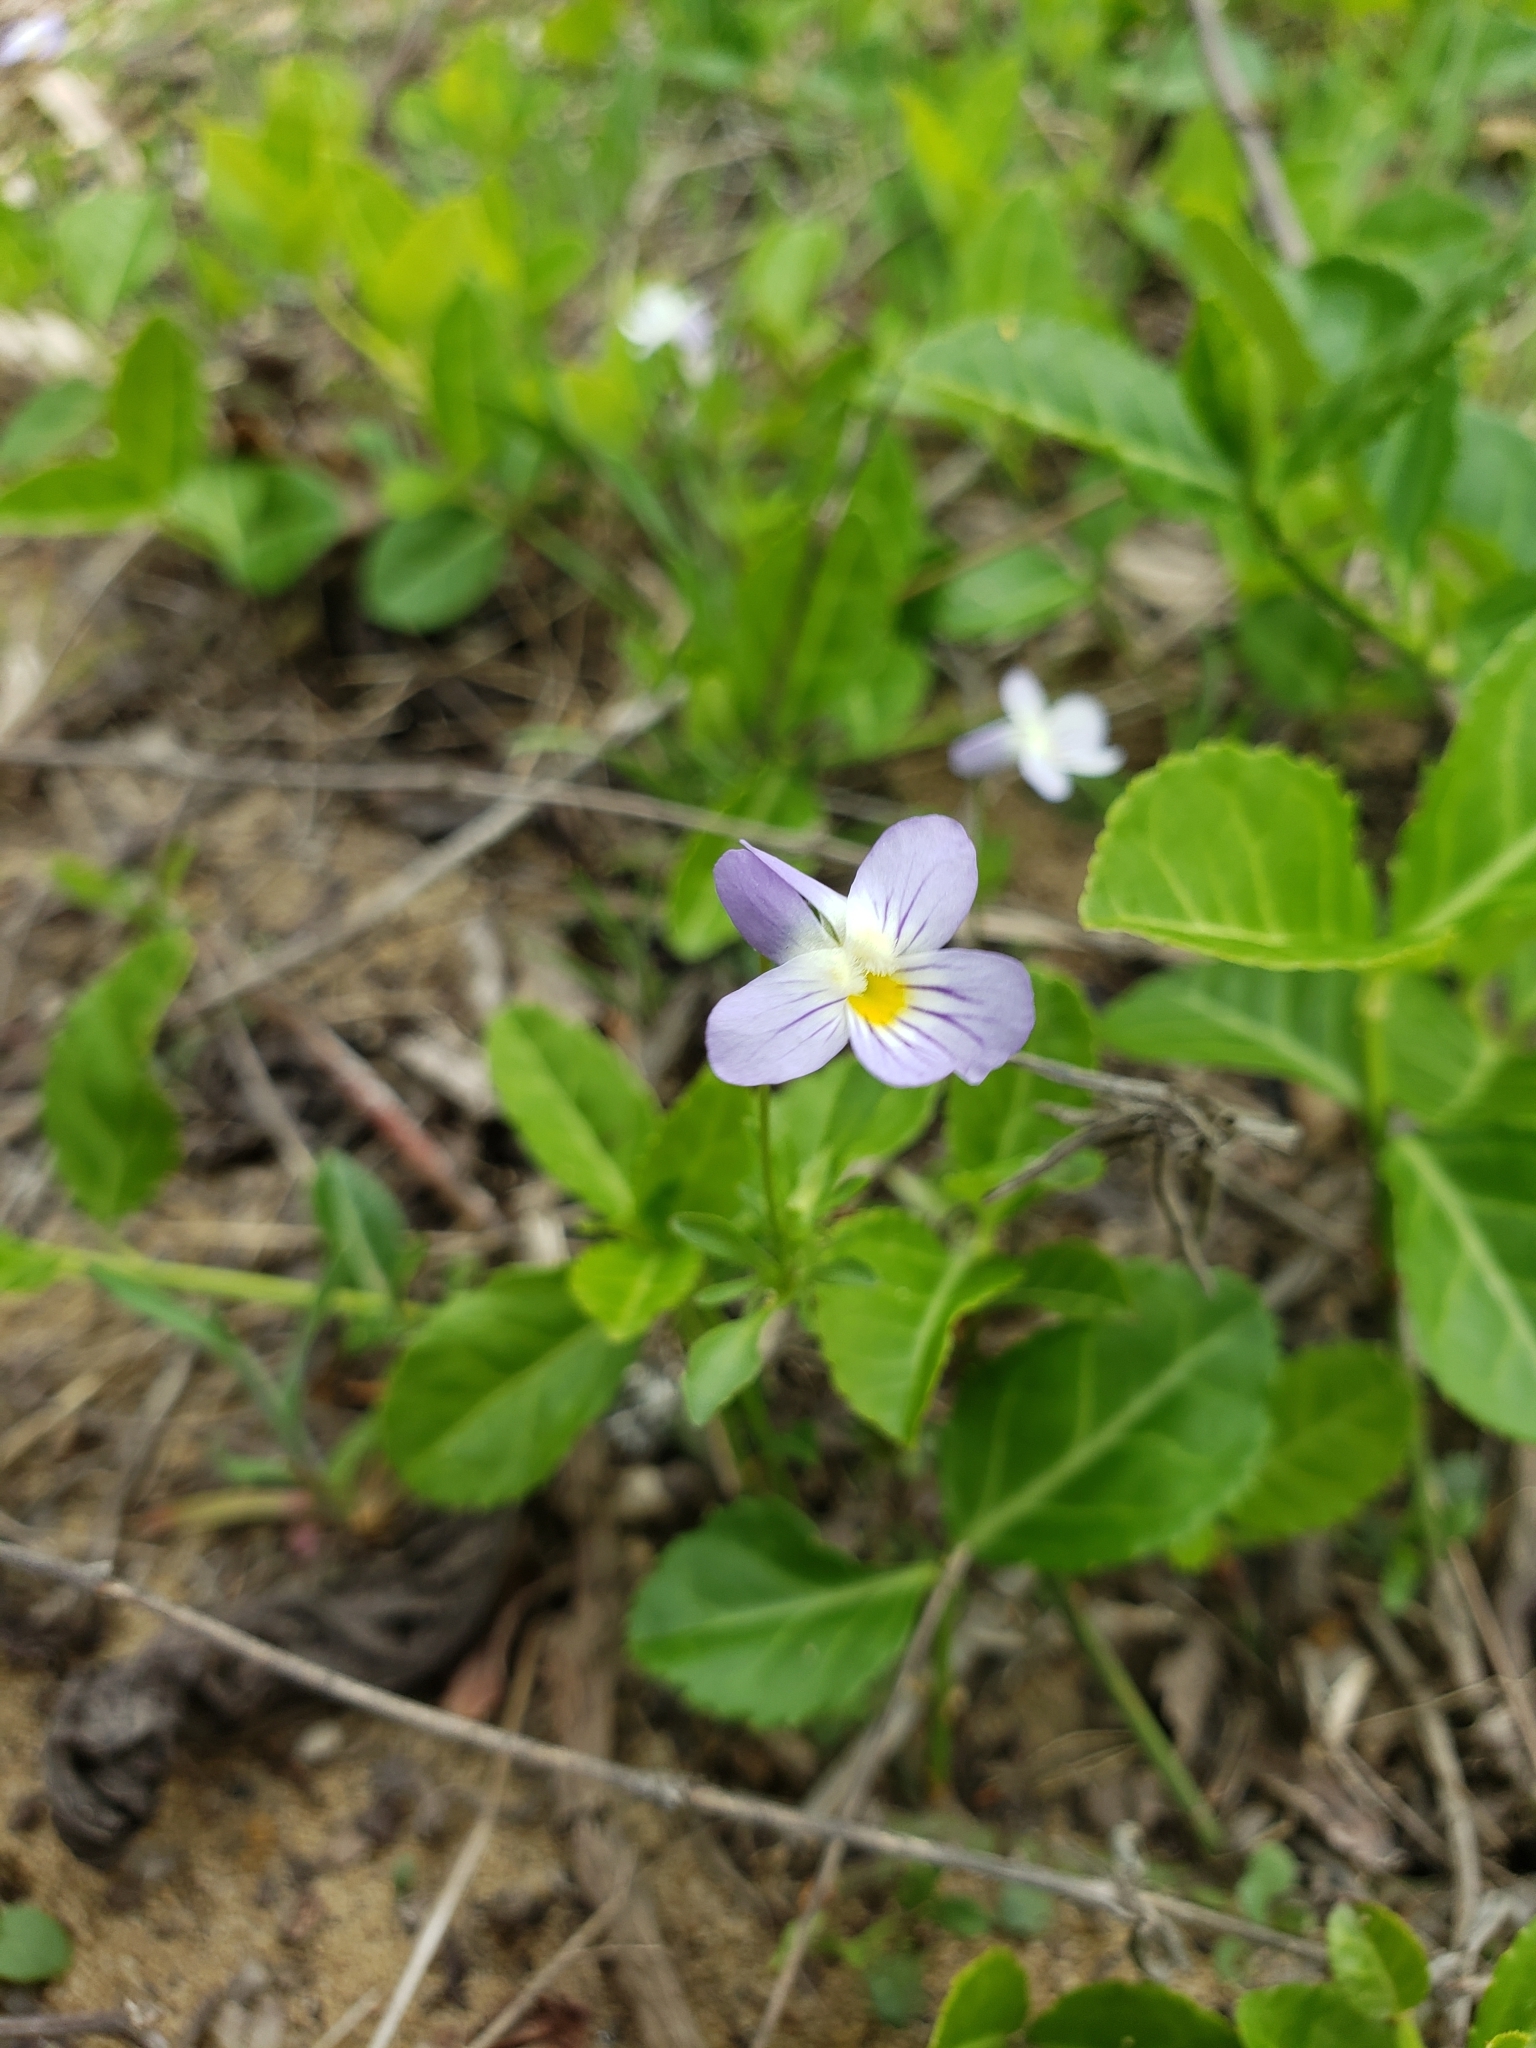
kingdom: Plantae
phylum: Tracheophyta
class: Magnoliopsida
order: Malpighiales
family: Violaceae
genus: Viola
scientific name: Viola rafinesquei
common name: American field pansy
